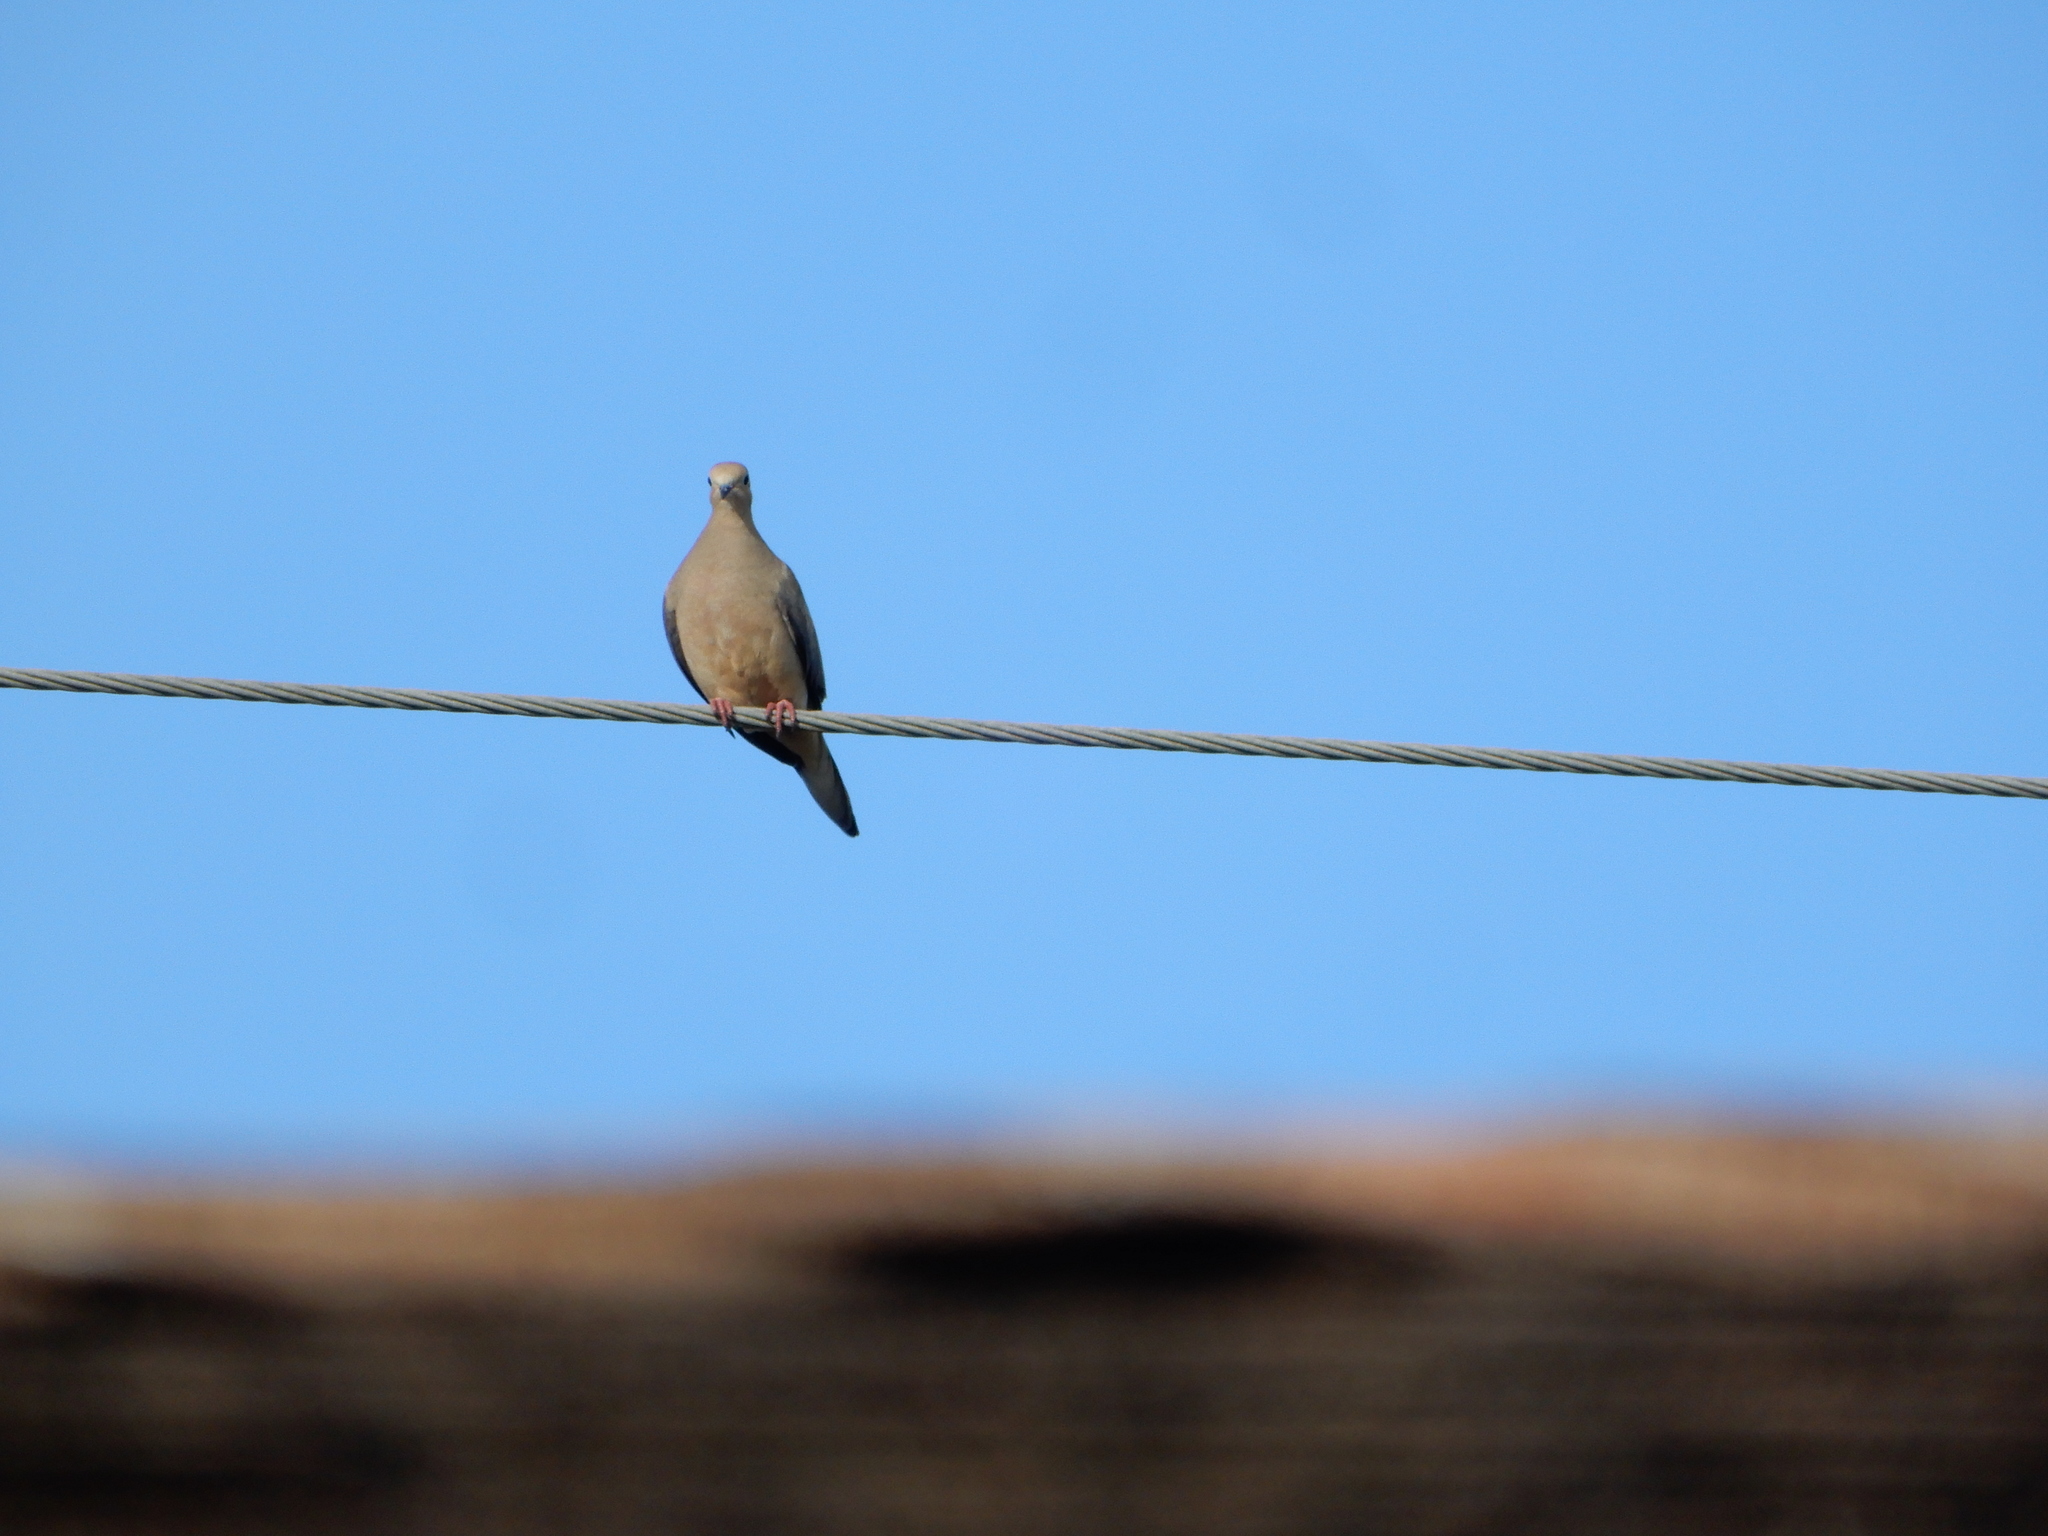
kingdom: Animalia
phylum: Chordata
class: Aves
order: Columbiformes
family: Columbidae
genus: Zenaida
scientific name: Zenaida macroura
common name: Mourning dove
